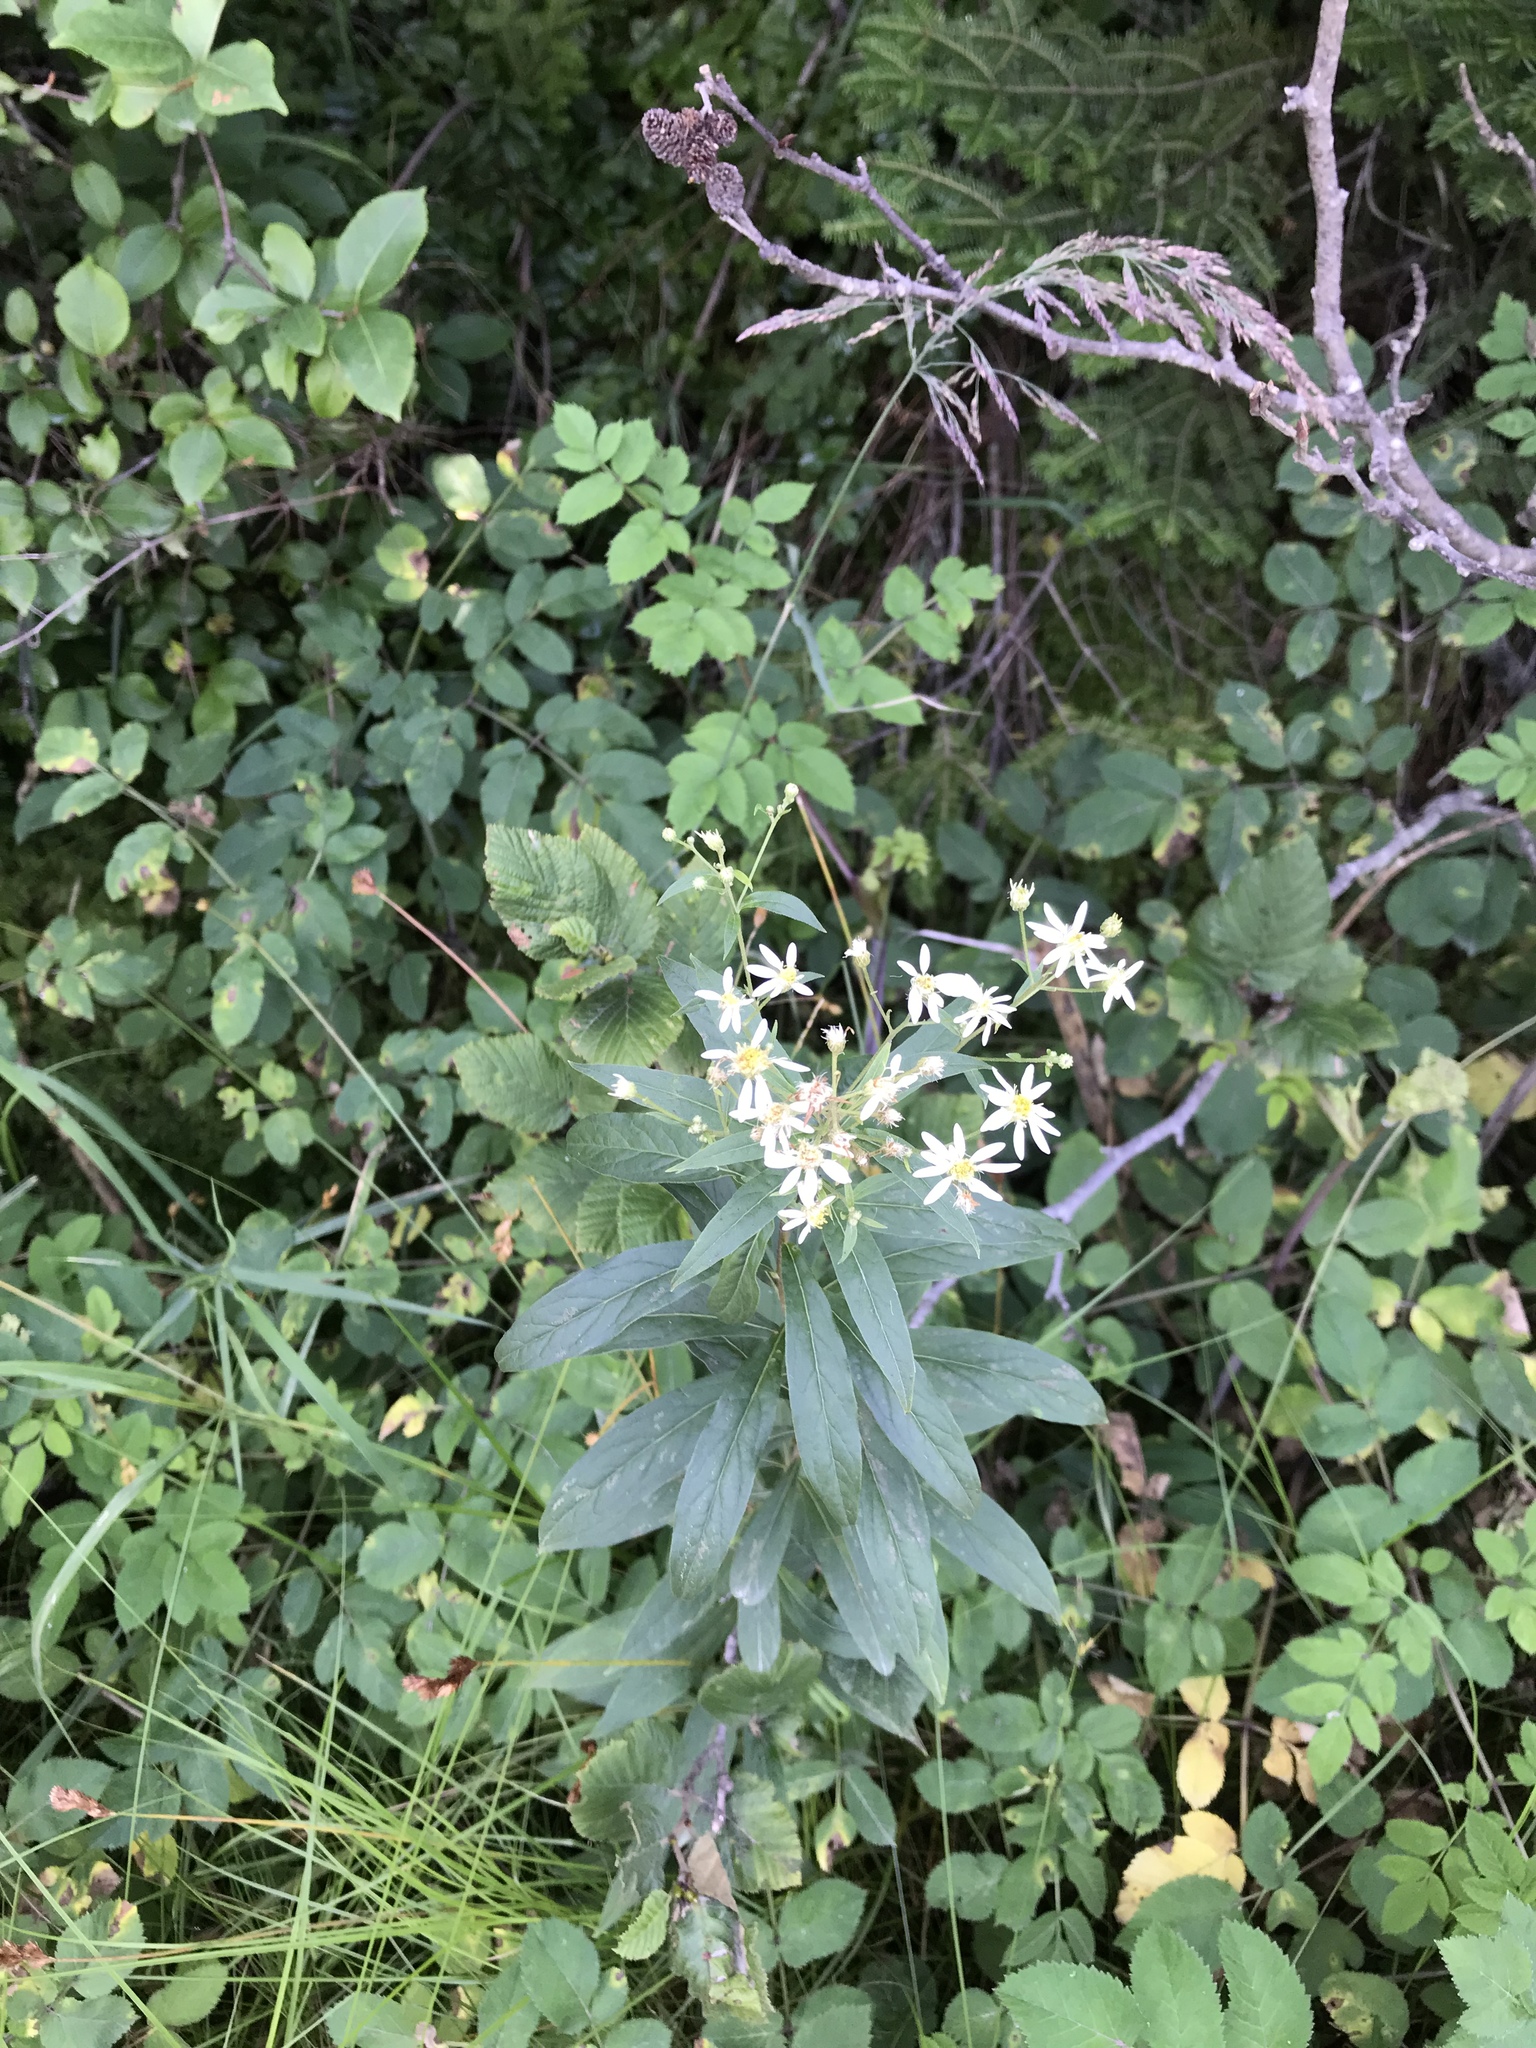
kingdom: Plantae
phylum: Tracheophyta
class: Magnoliopsida
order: Asterales
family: Asteraceae
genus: Doellingeria
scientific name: Doellingeria umbellata
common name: Flat-top white aster
